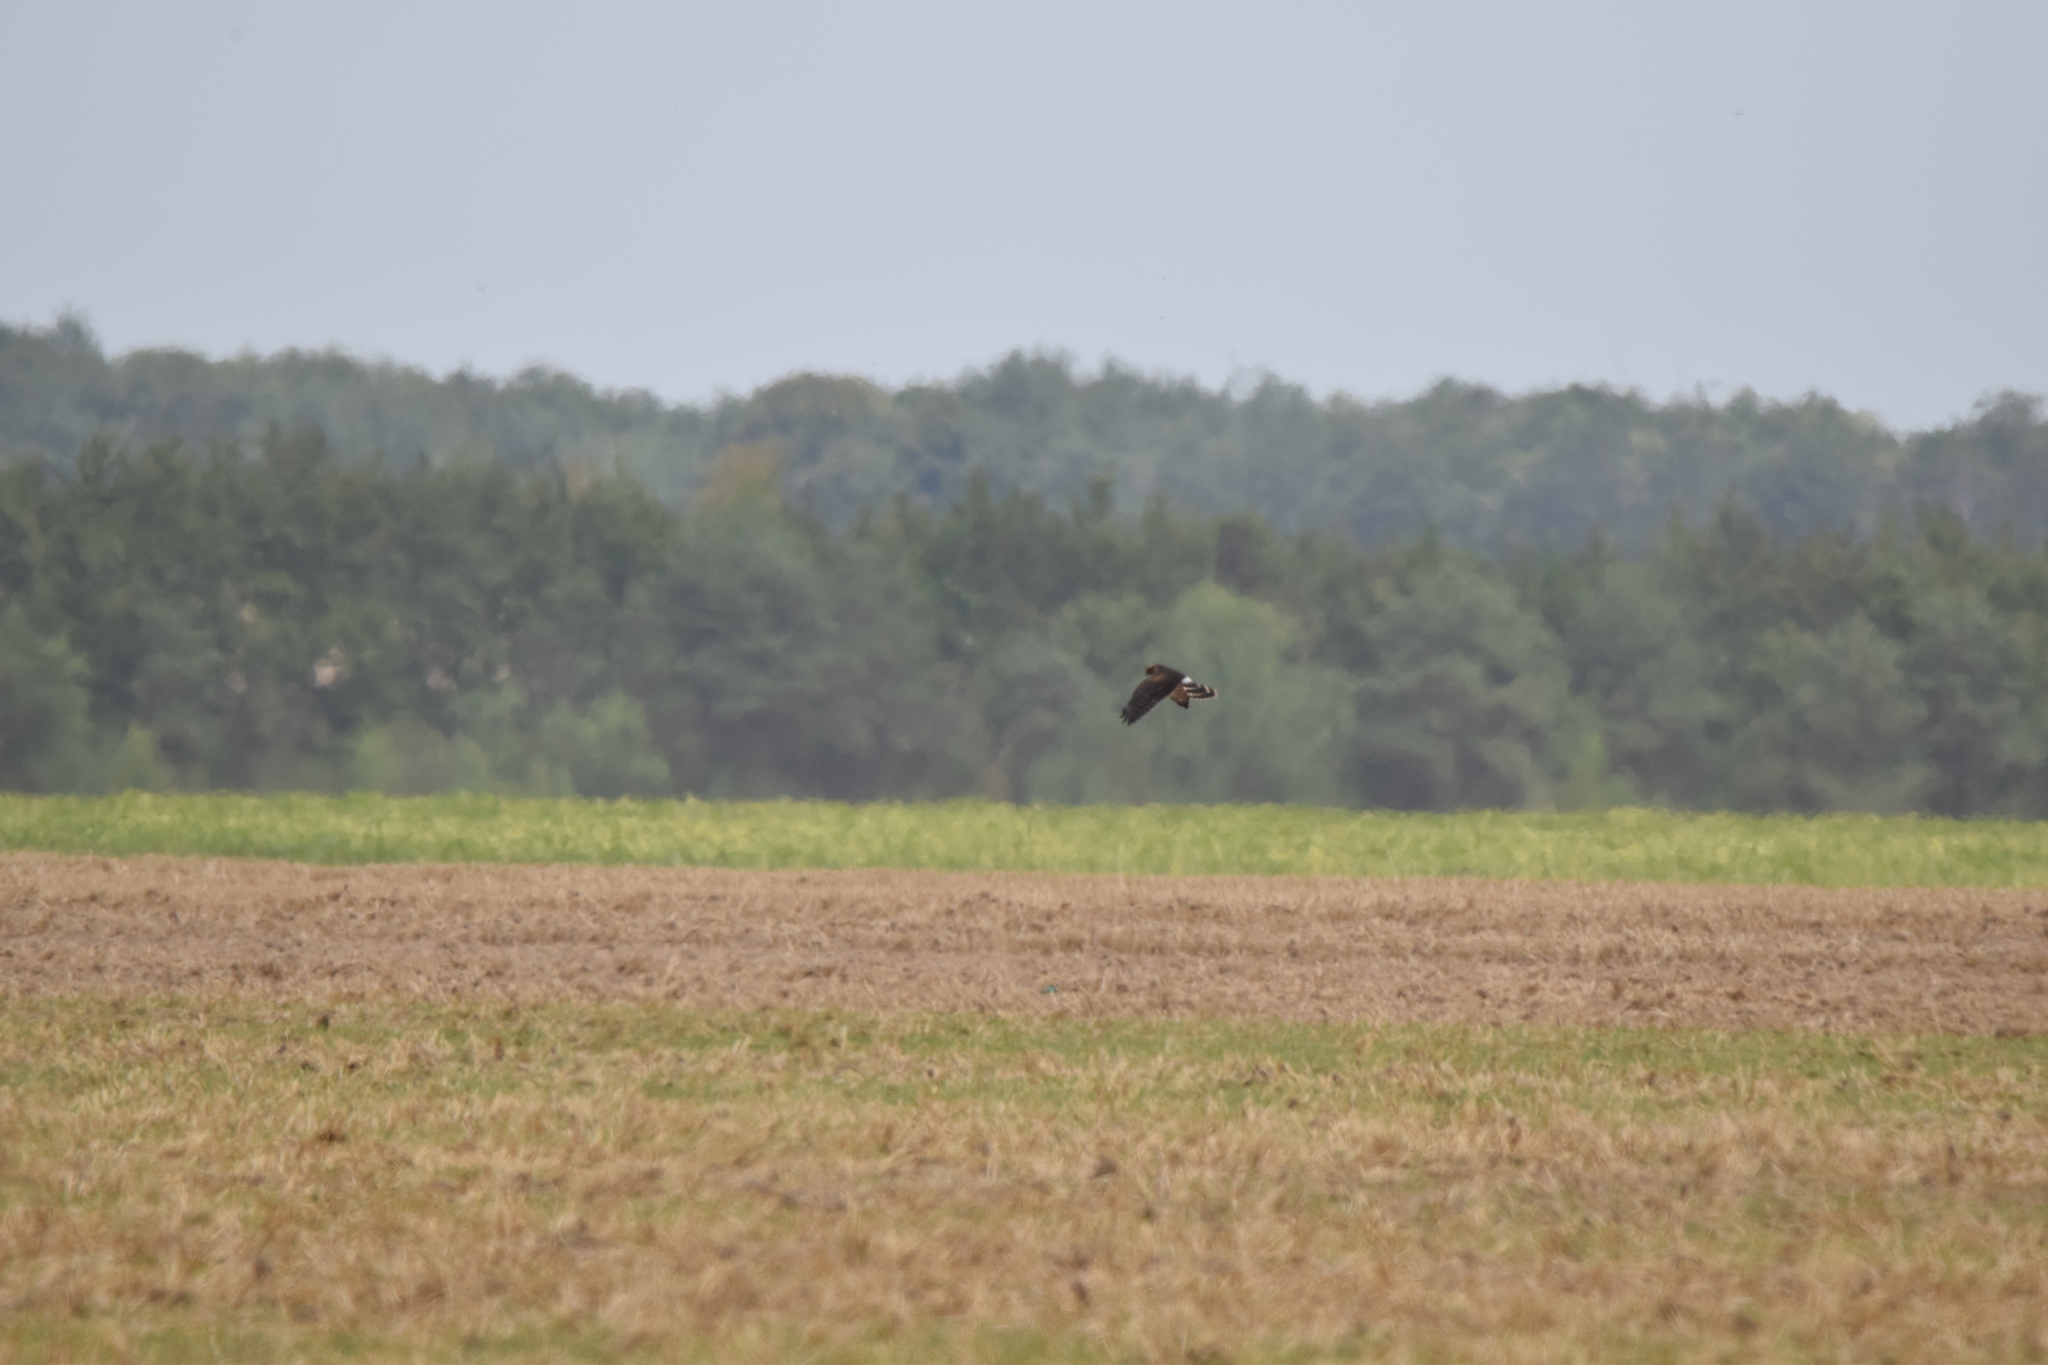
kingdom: Animalia
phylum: Chordata
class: Aves
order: Accipitriformes
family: Accipitridae
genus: Circus
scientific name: Circus pygargus
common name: Montagu's harrier
